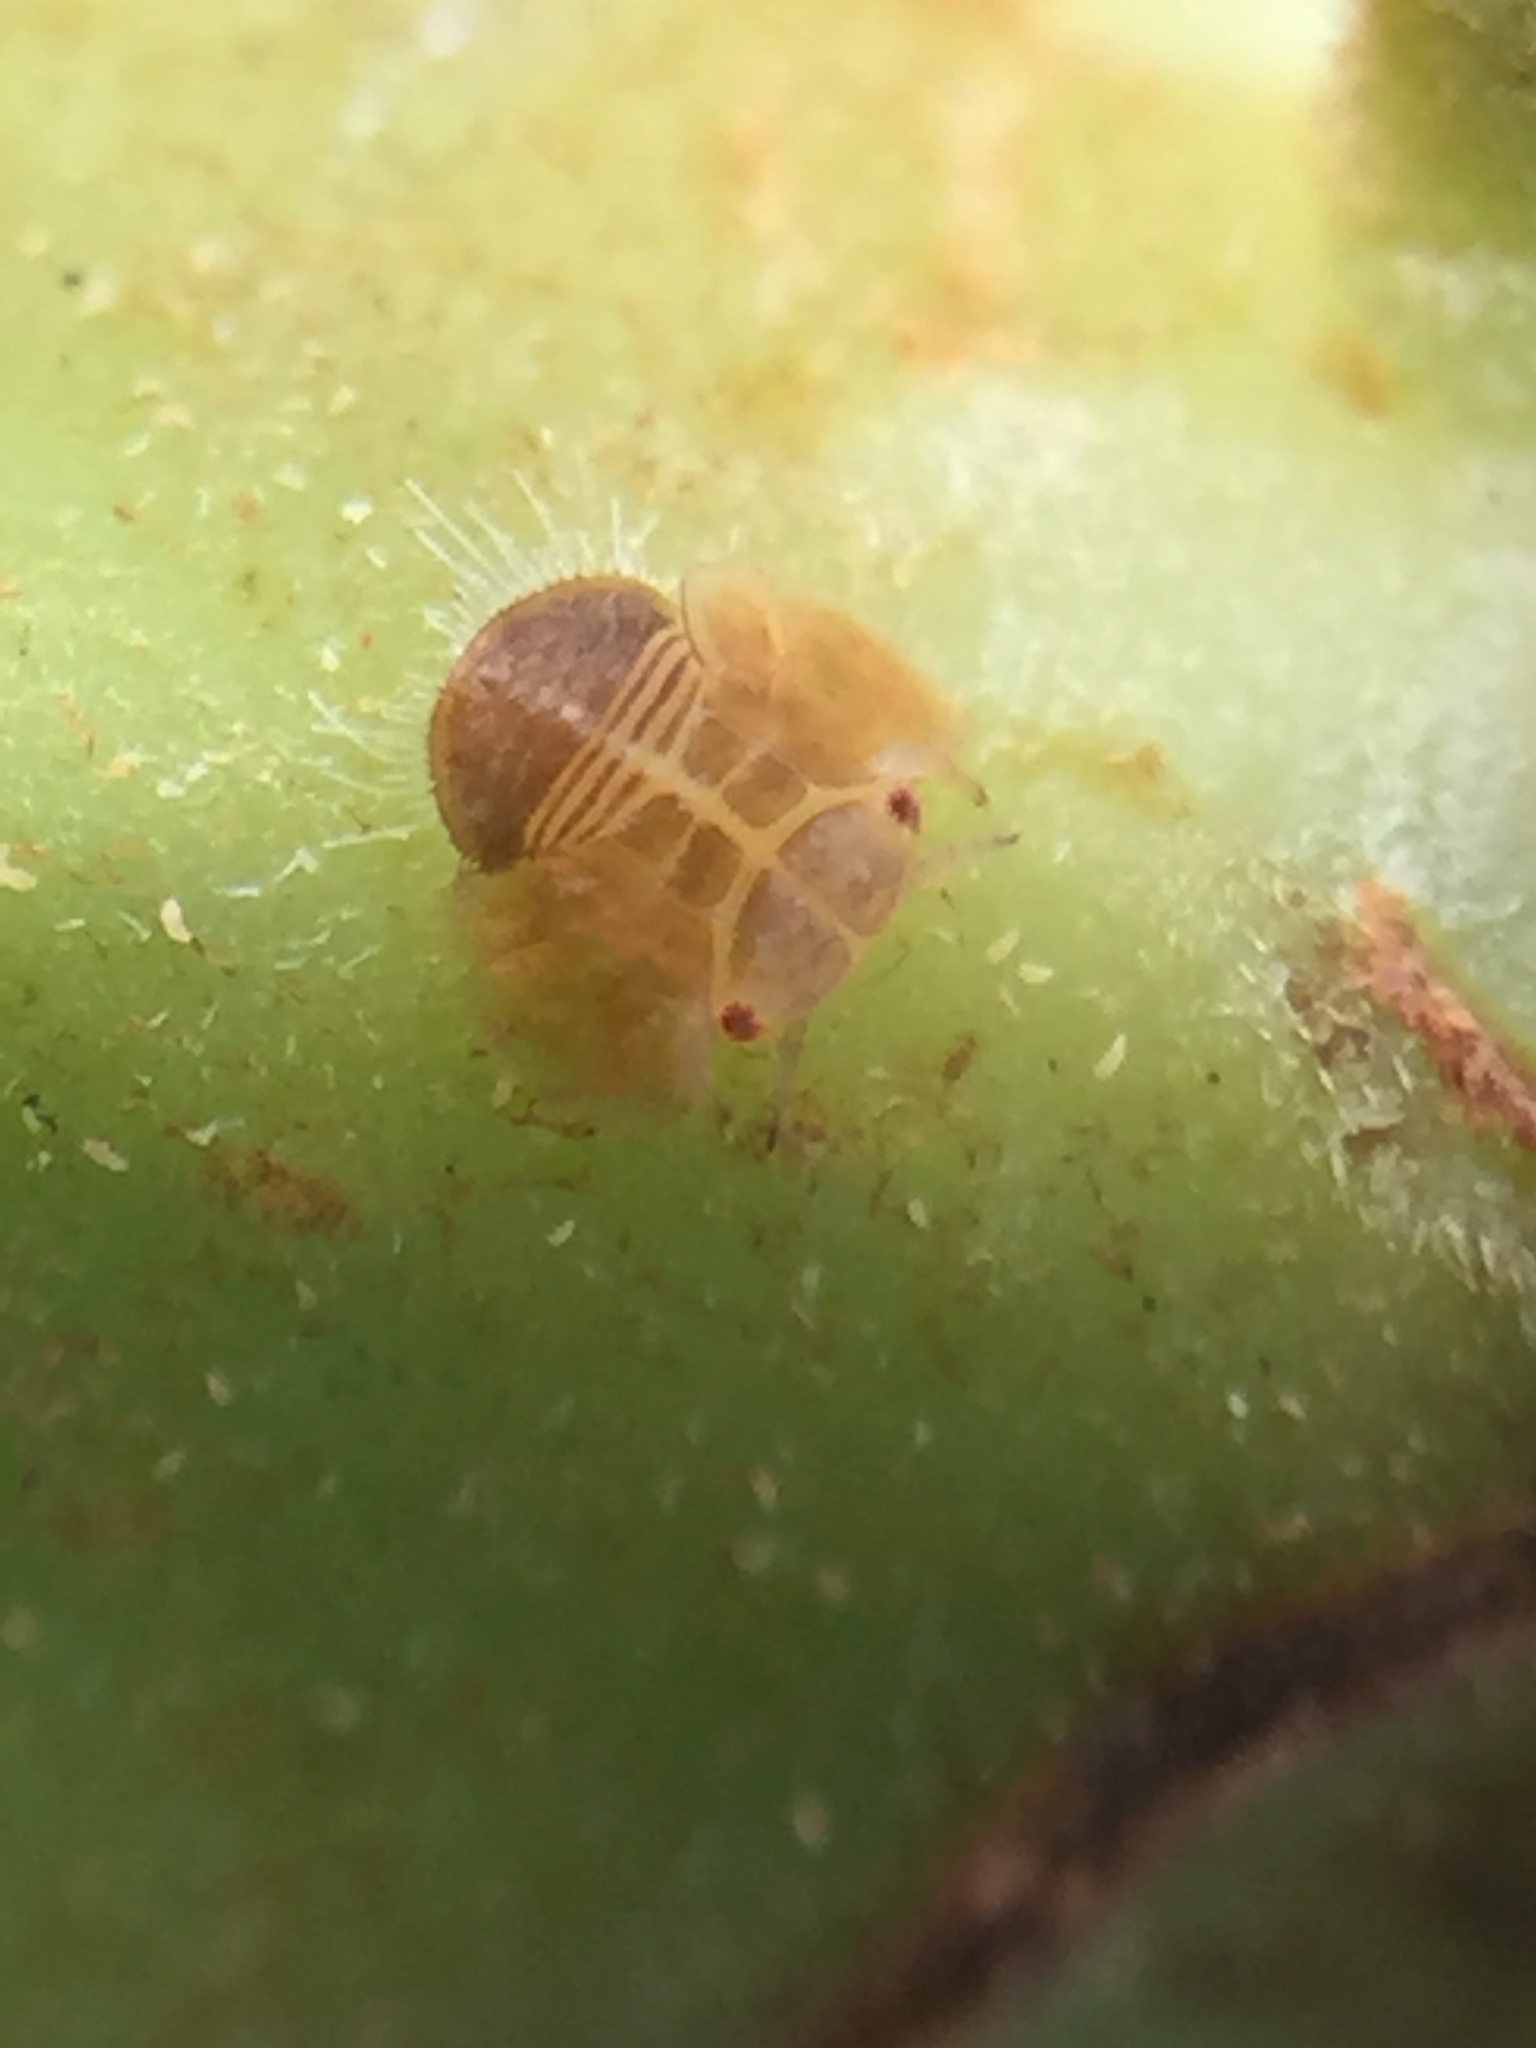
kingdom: Animalia
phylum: Arthropoda
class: Insecta
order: Hemiptera
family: Homotomidae
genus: Mycopsylla
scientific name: Mycopsylla obliqua
